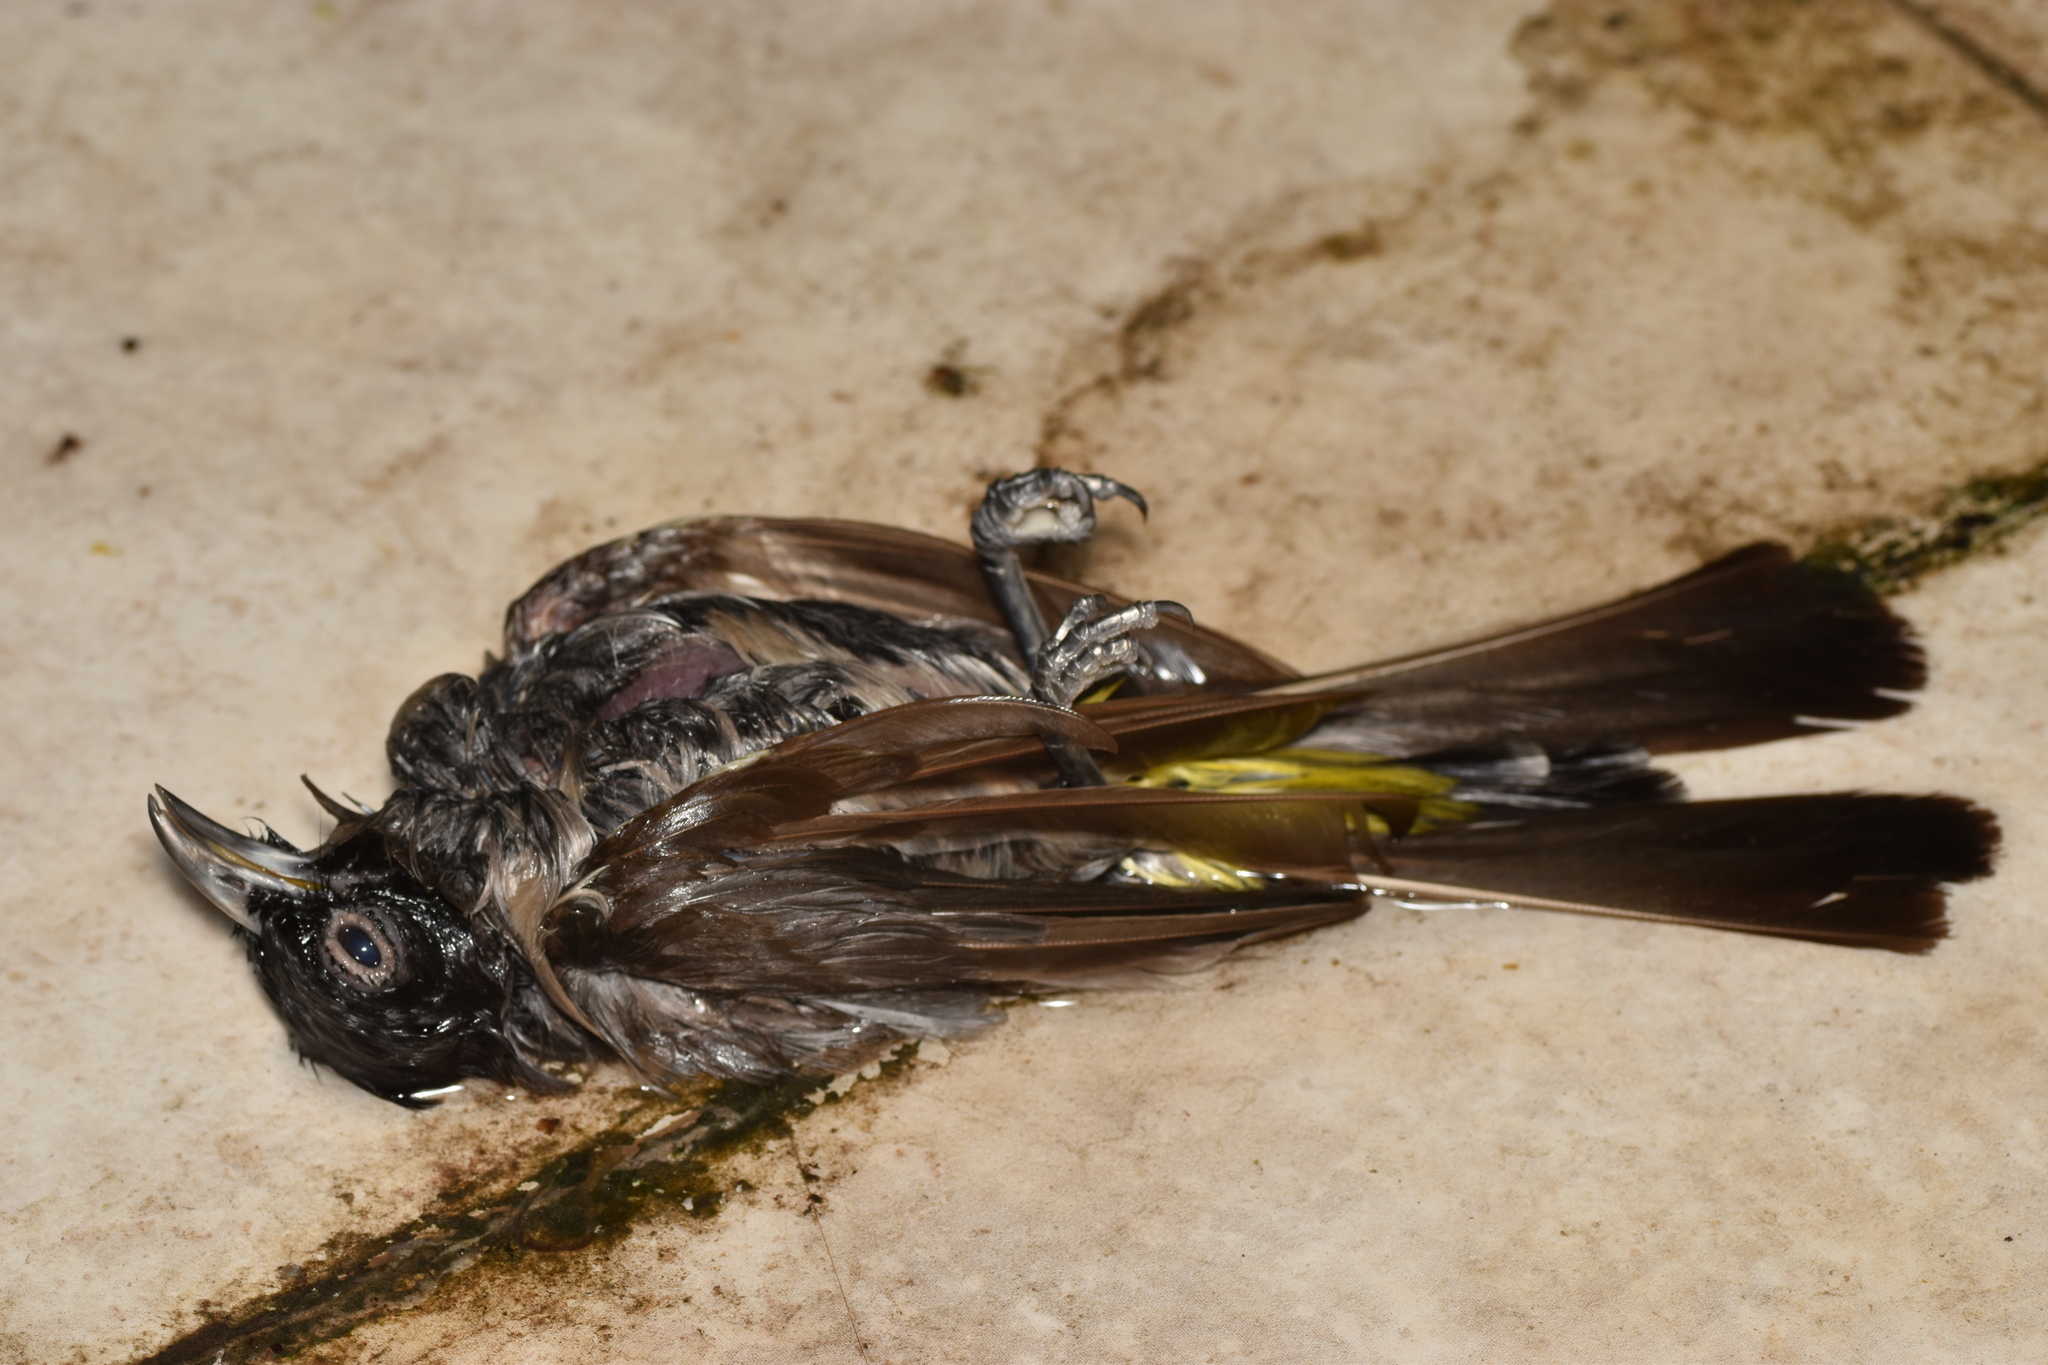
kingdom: Animalia
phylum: Chordata
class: Aves
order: Passeriformes
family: Pycnonotidae
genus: Pycnonotus
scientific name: Pycnonotus xanthopygos
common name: White-spectacled bulbul
